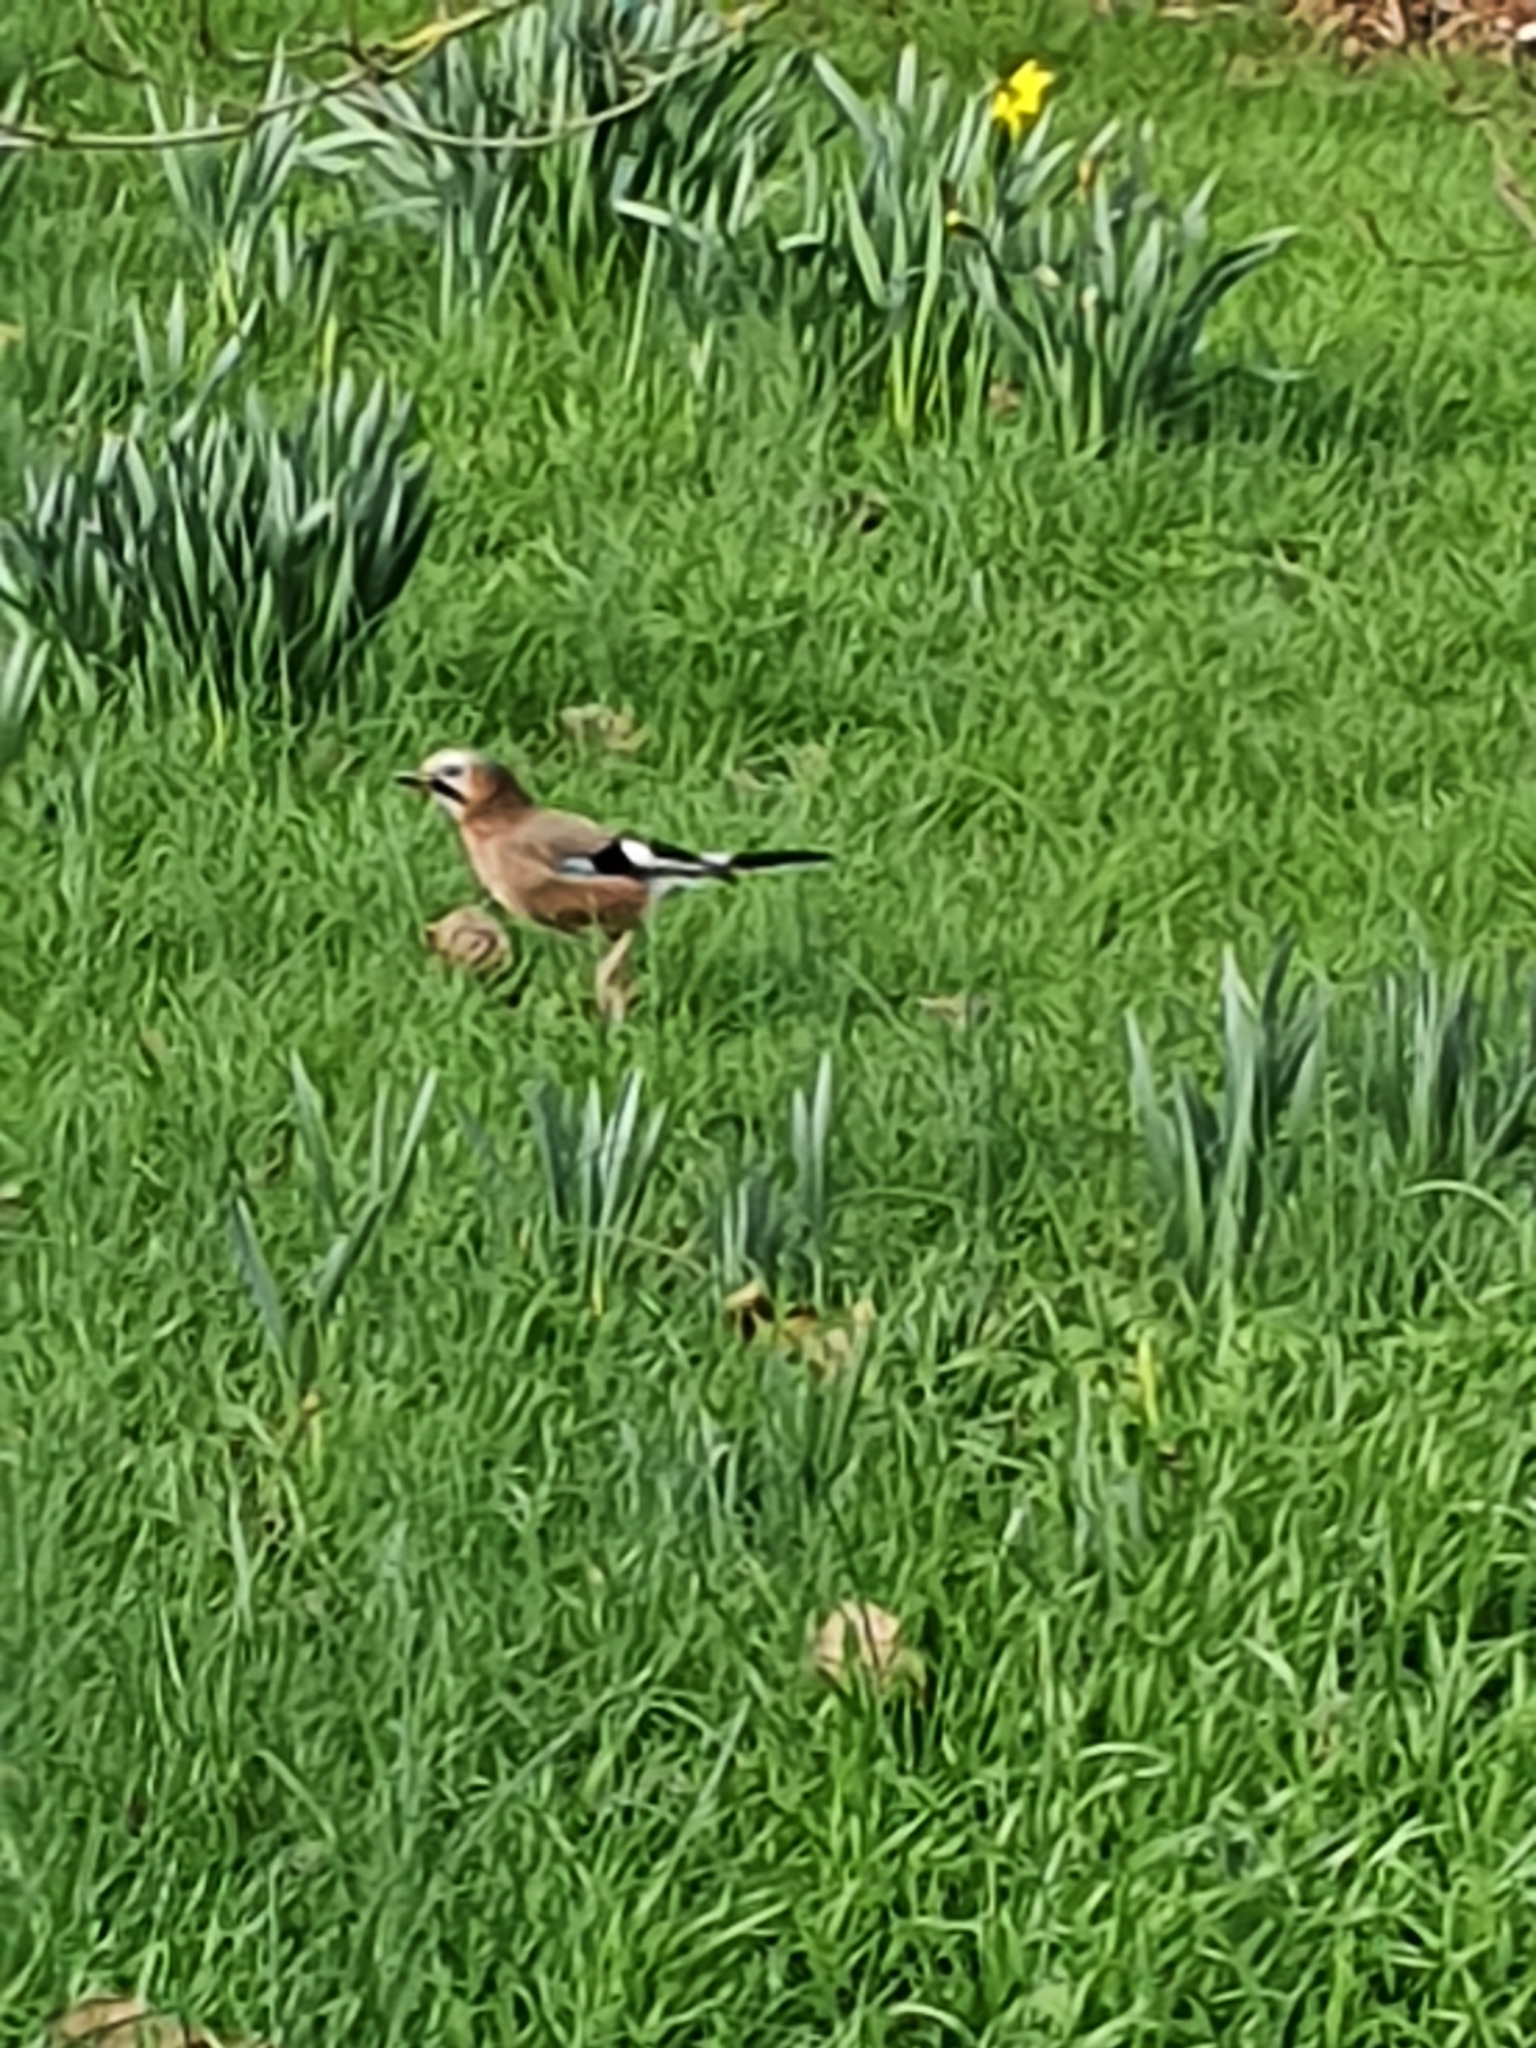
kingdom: Animalia
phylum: Chordata
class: Aves
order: Passeriformes
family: Corvidae
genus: Garrulus
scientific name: Garrulus glandarius
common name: Eurasian jay
